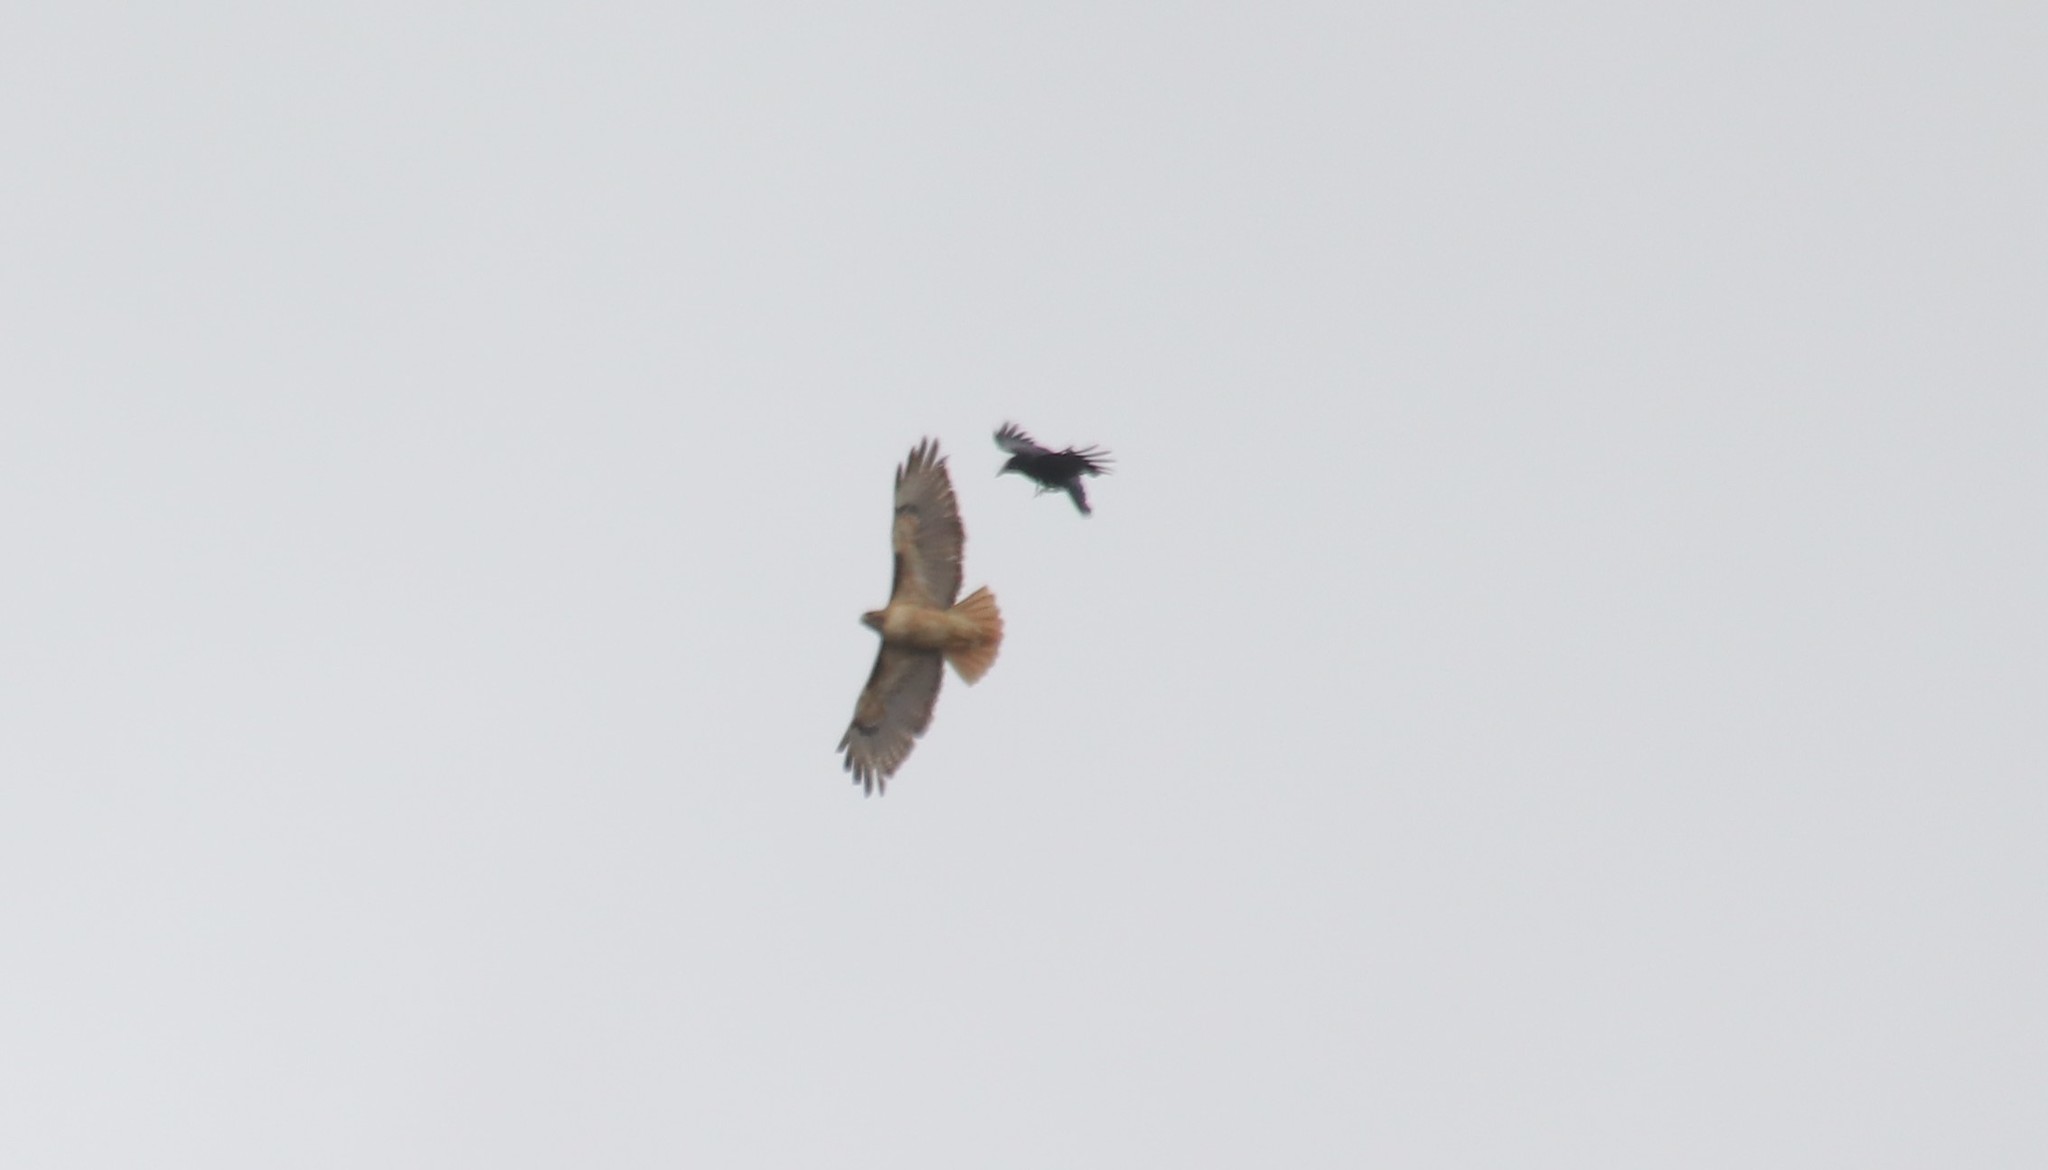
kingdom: Animalia
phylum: Chordata
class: Aves
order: Accipitriformes
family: Accipitridae
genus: Buteo
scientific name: Buteo jamaicensis
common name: Red-tailed hawk
